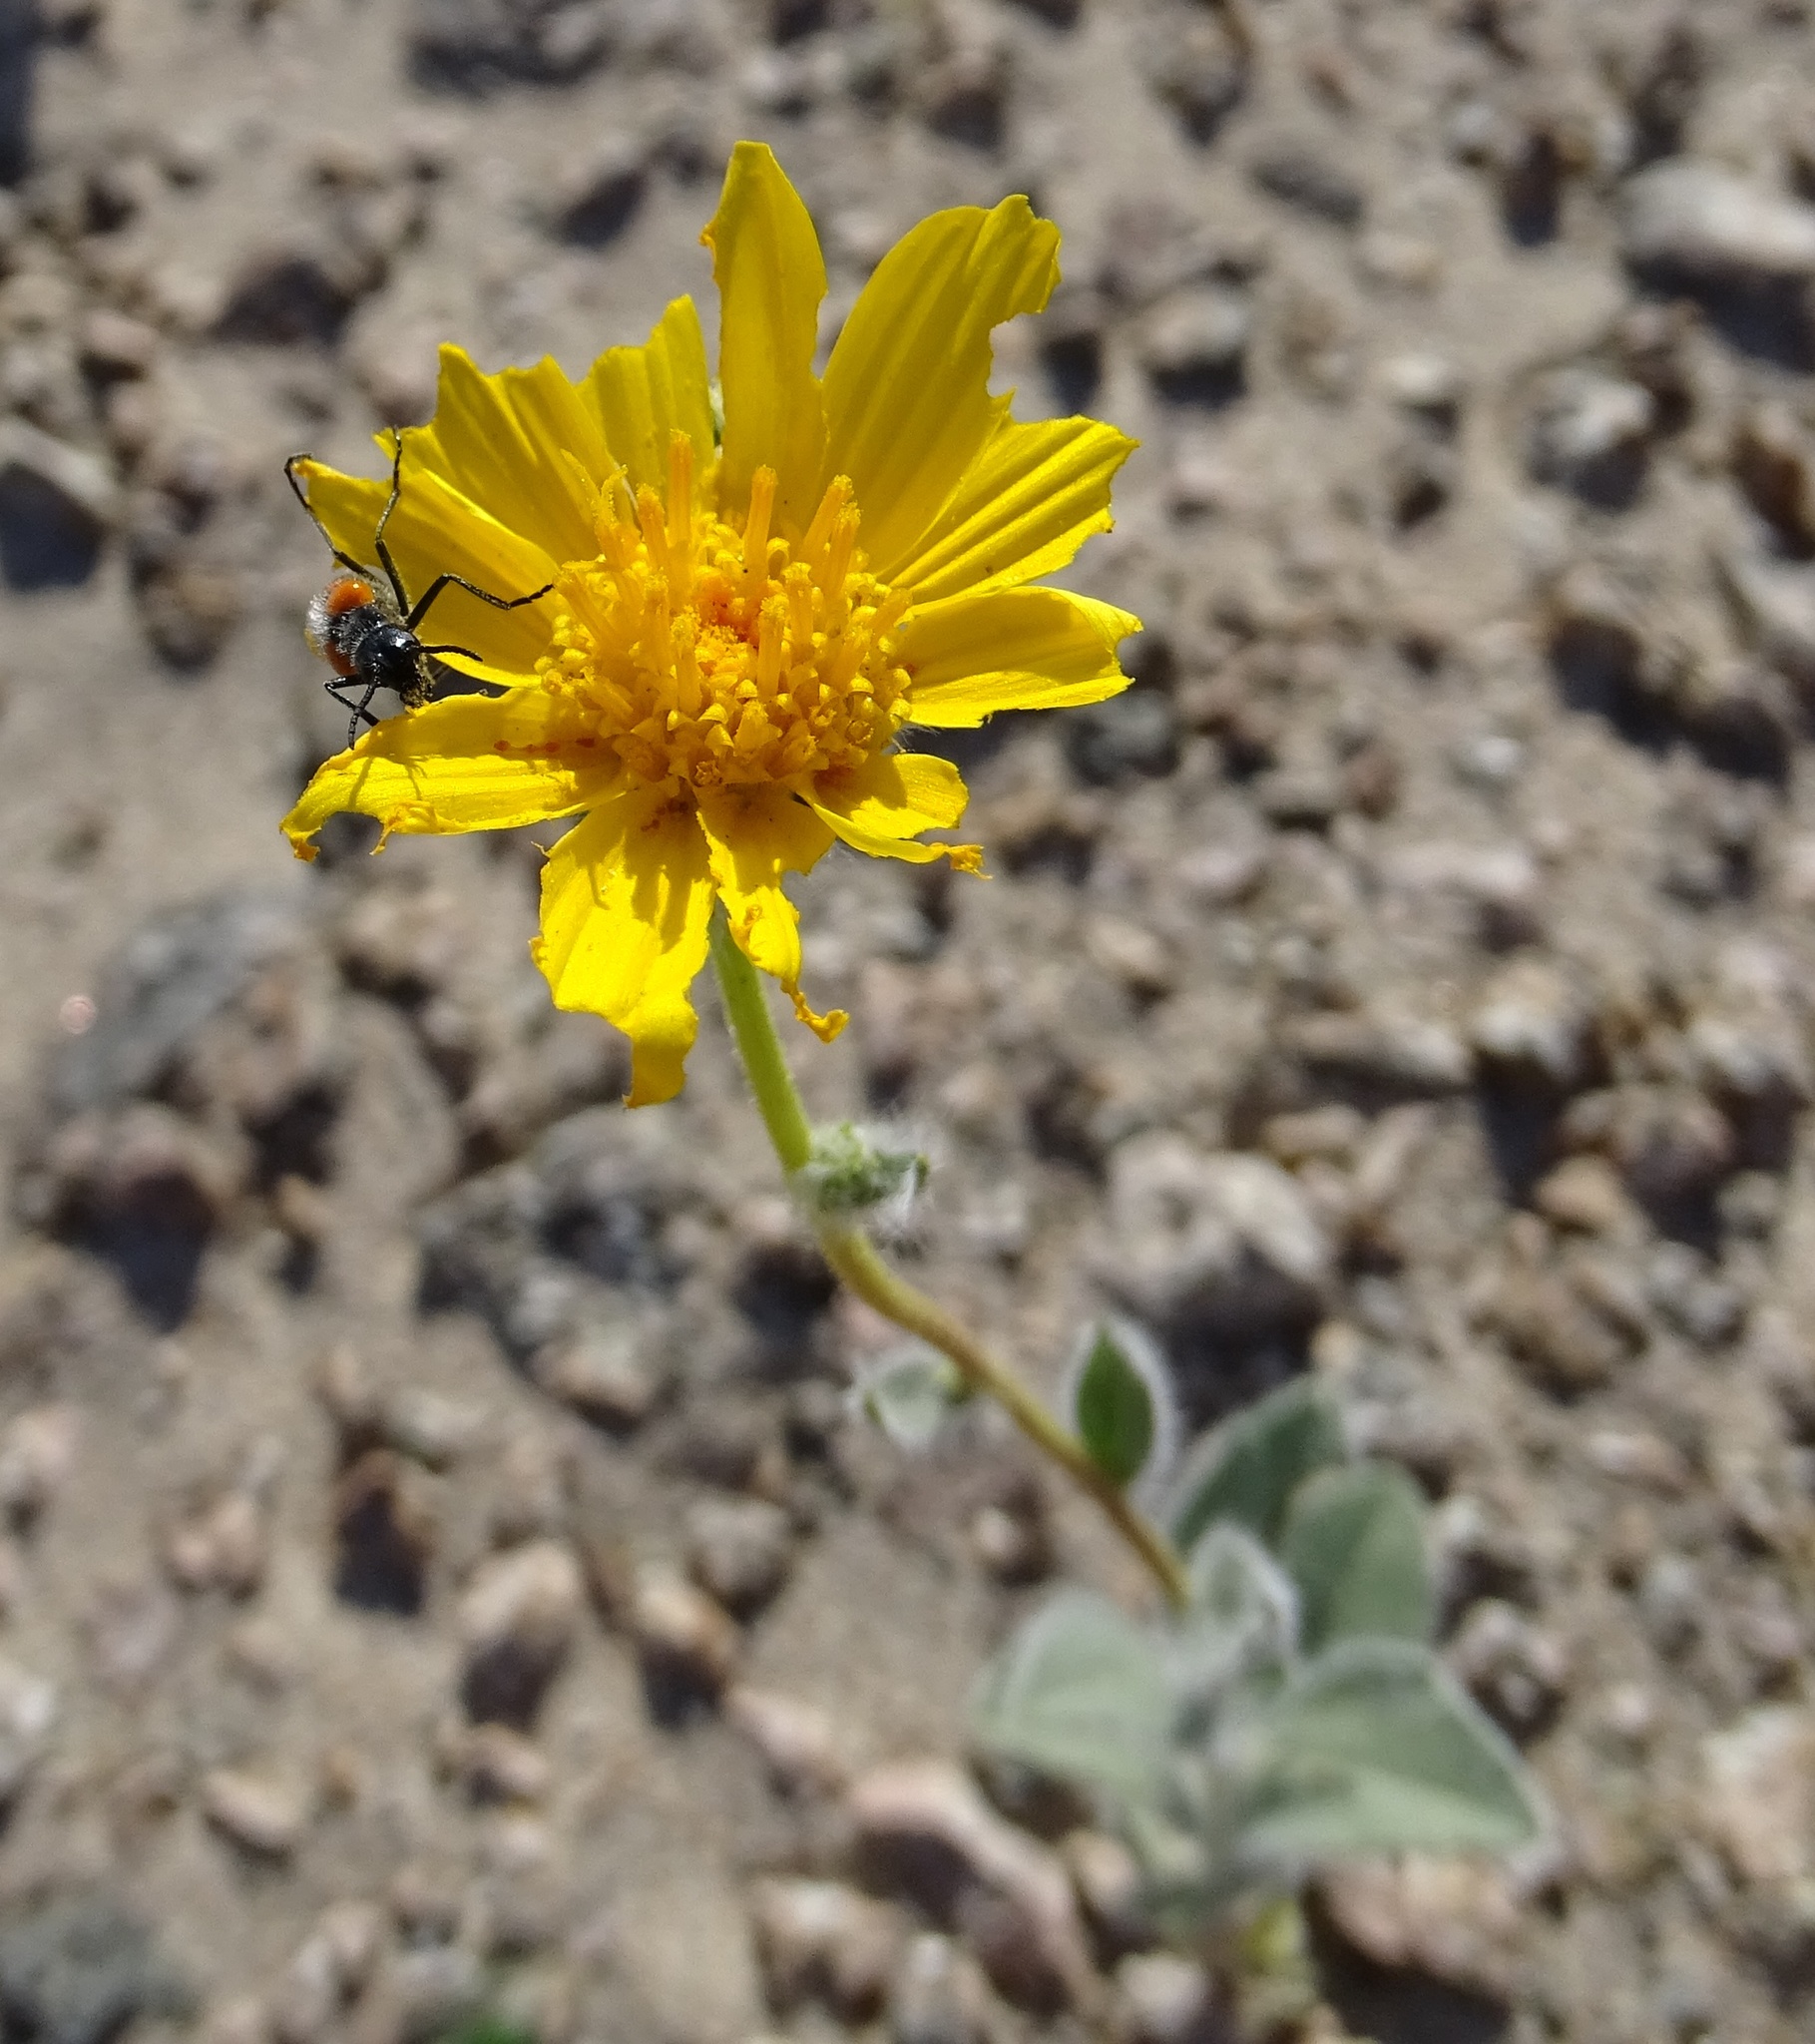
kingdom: Animalia
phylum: Arthropoda
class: Insecta
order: Coleoptera
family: Meloidae
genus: Eupompha
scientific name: Eupompha elegans
